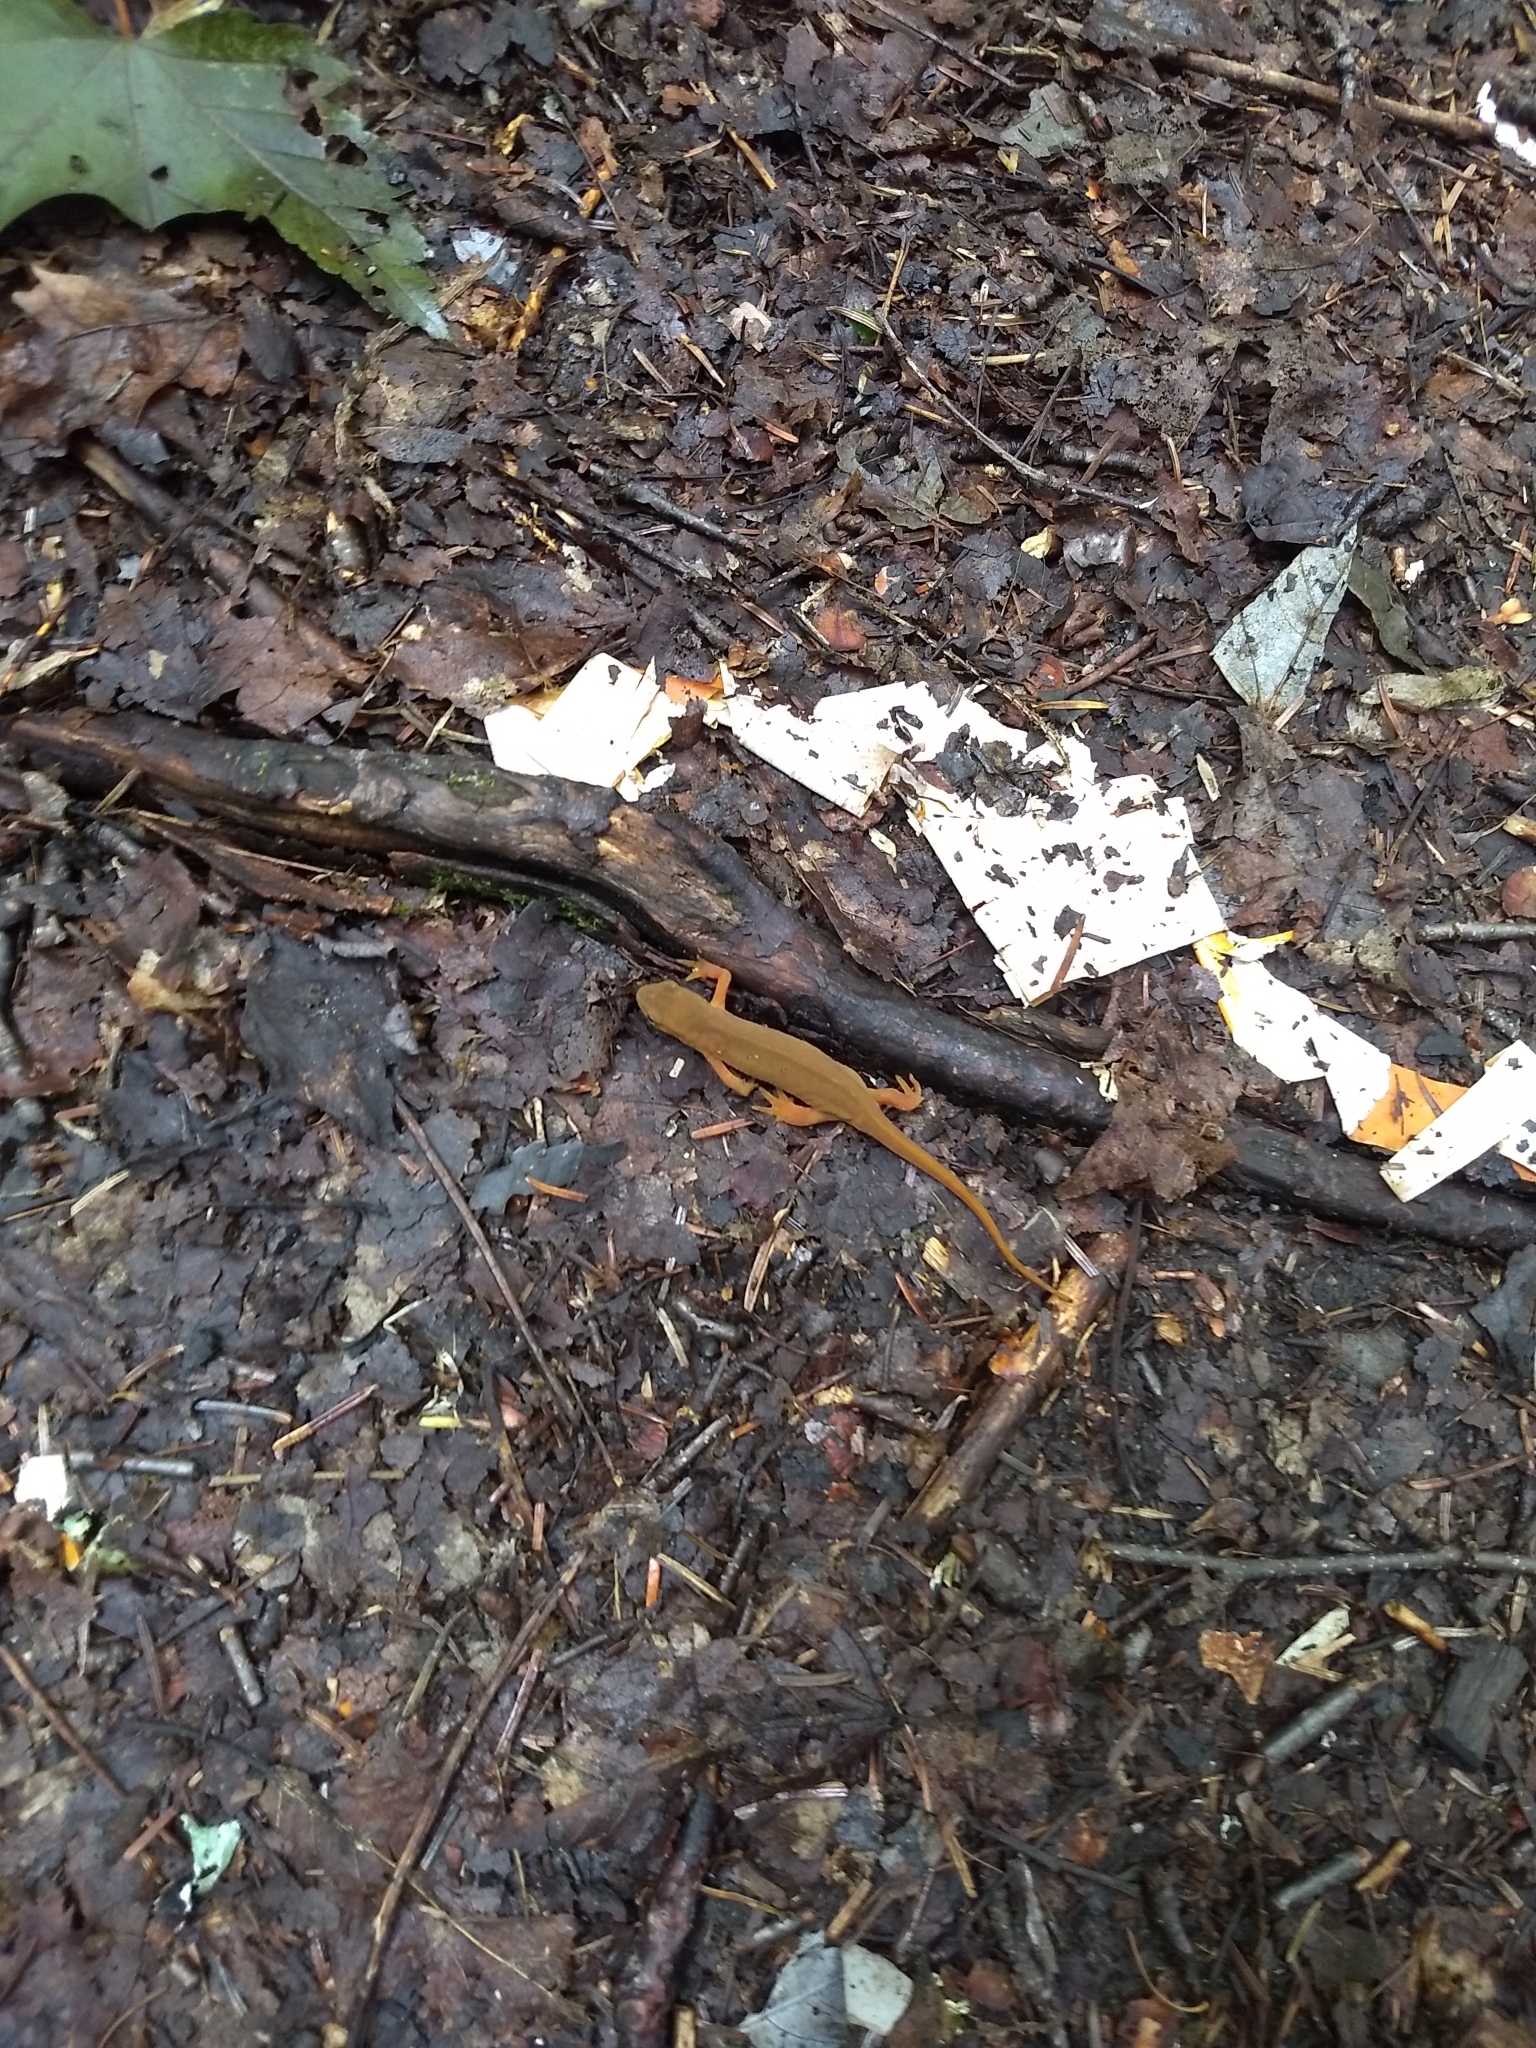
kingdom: Animalia
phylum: Chordata
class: Amphibia
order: Caudata
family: Salamandridae
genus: Notophthalmus
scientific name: Notophthalmus viridescens
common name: Eastern newt
